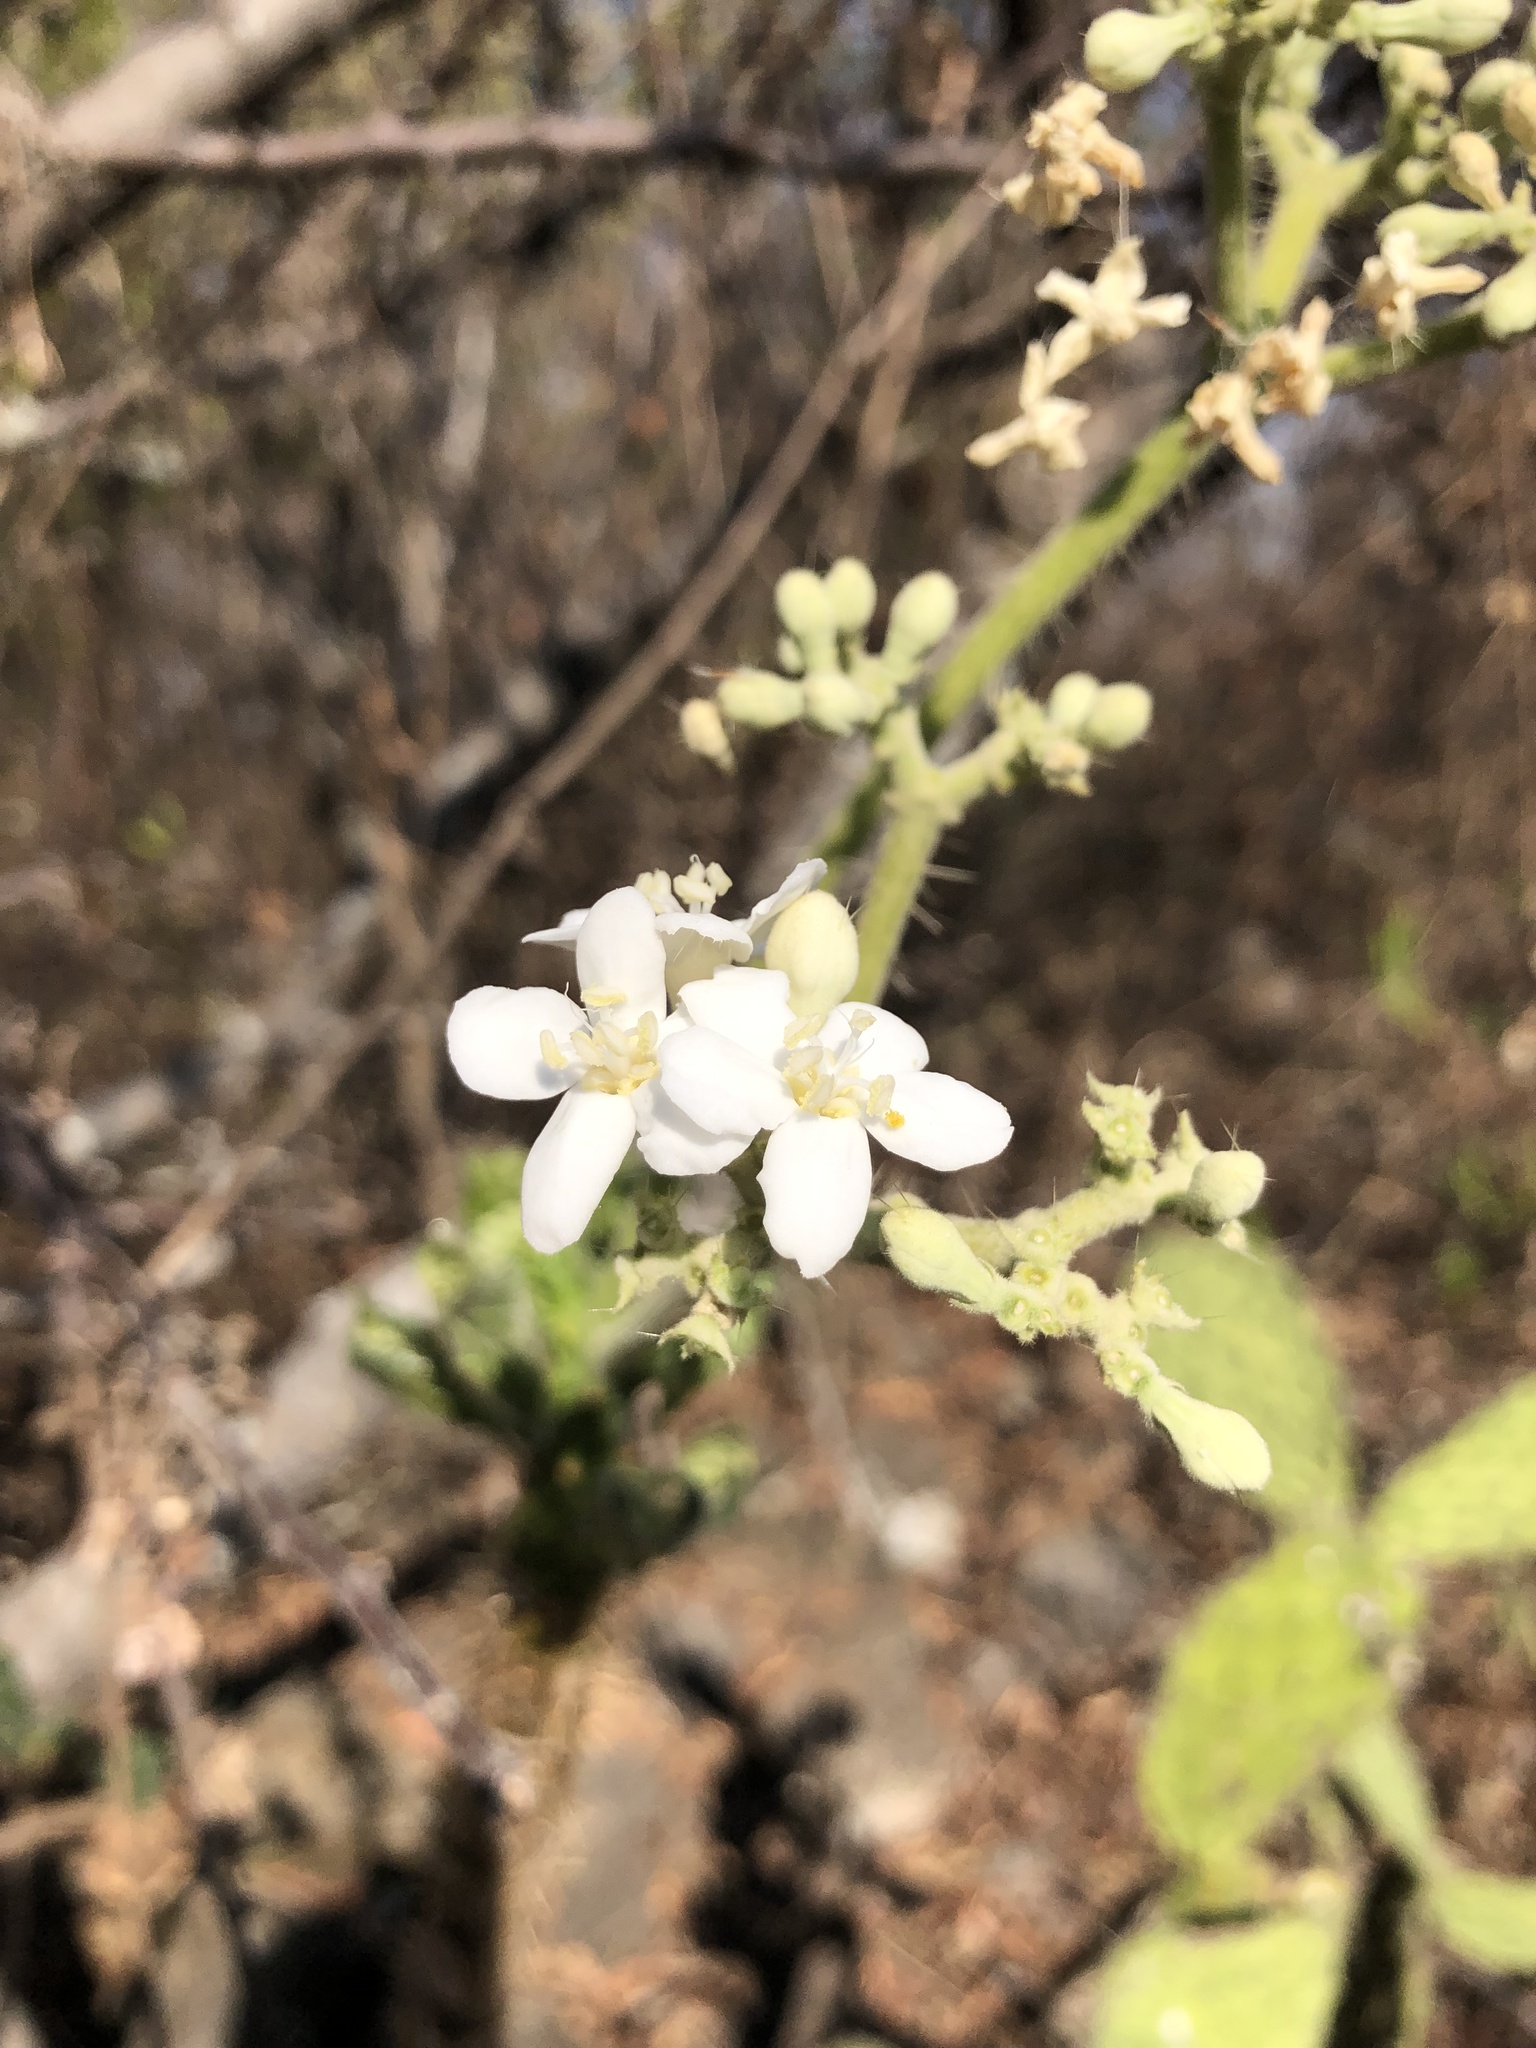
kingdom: Plantae
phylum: Tracheophyta
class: Magnoliopsida
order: Malpighiales
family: Euphorbiaceae
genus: Cnidoscolus
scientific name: Cnidoscolus urens
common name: Bull-nettle
